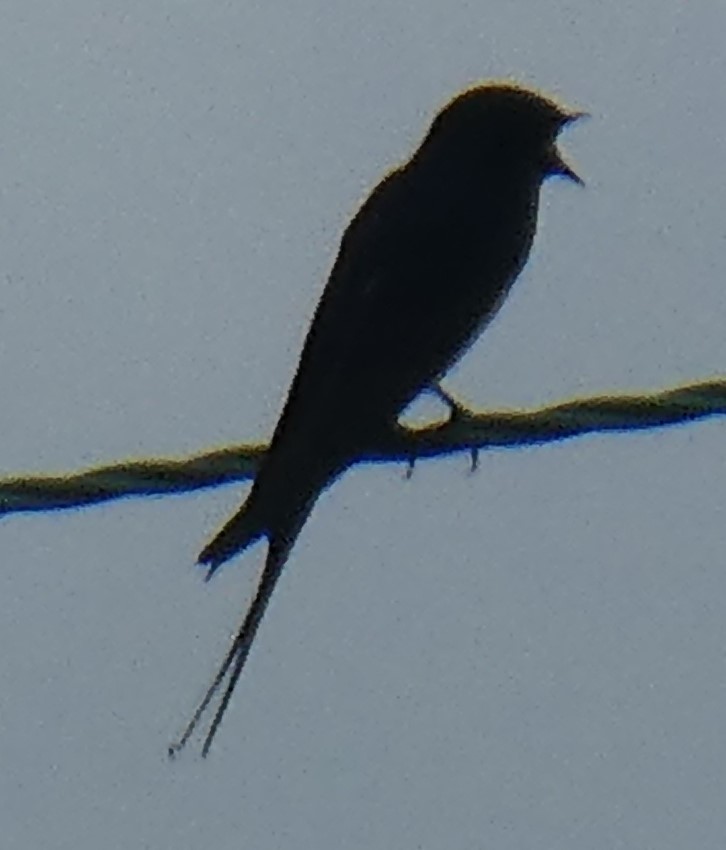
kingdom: Animalia
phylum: Chordata
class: Aves
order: Passeriformes
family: Hirundinidae
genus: Hirundo
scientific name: Hirundo rustica
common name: Barn swallow
